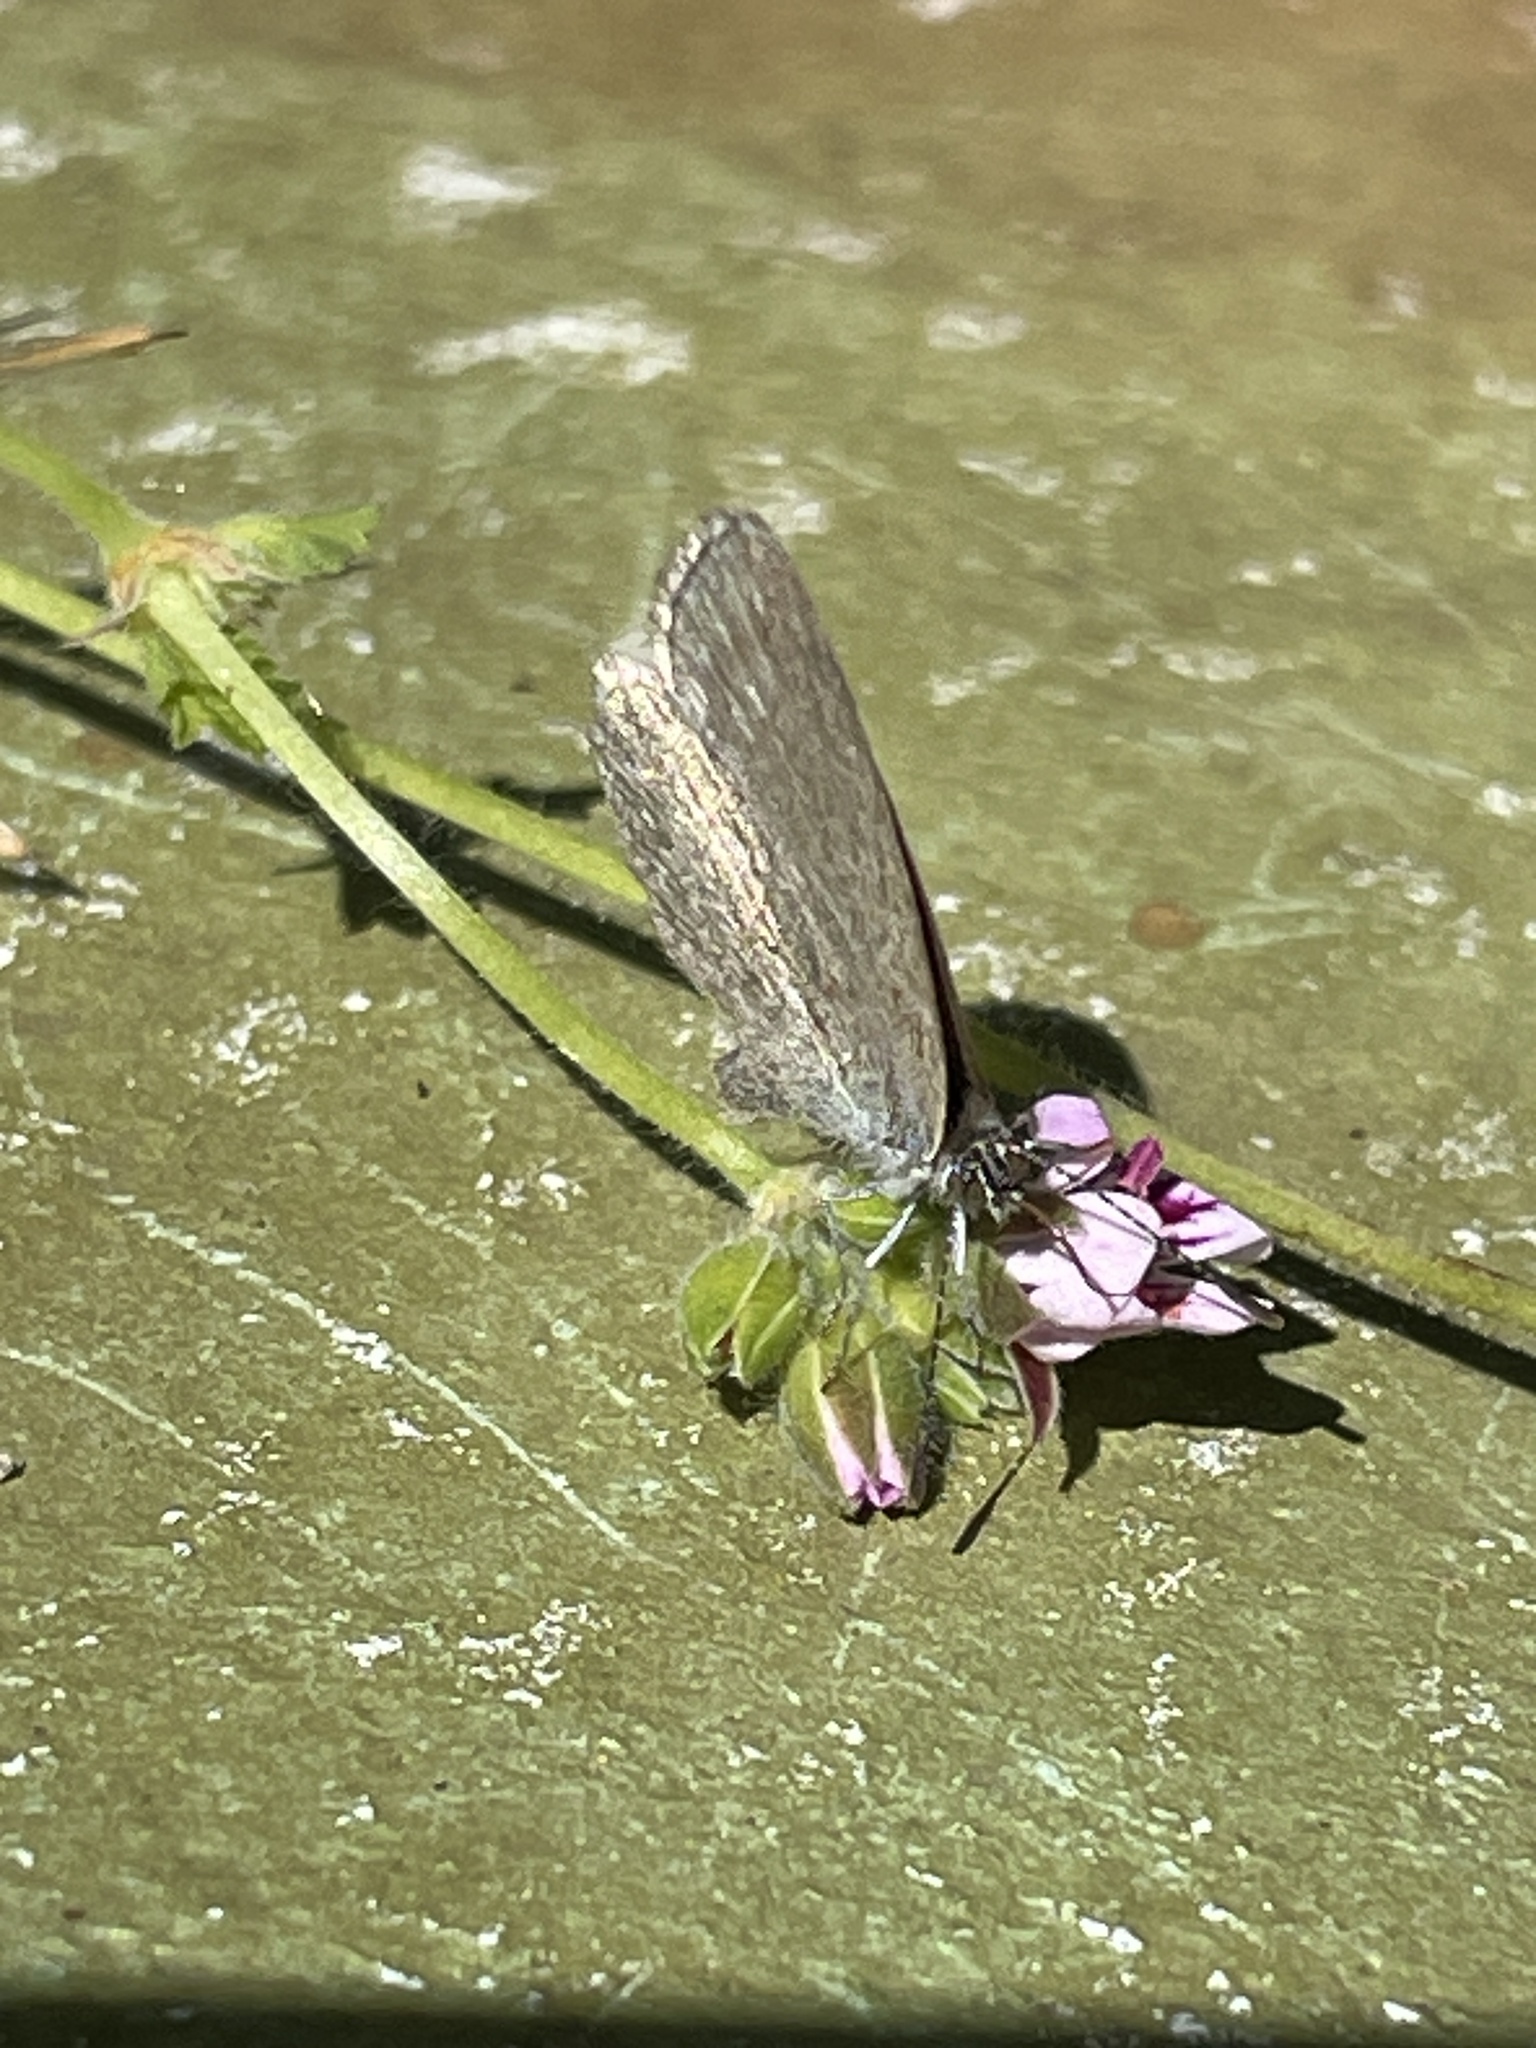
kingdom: Animalia
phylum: Arthropoda
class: Insecta
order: Lepidoptera
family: Lycaenidae
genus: Zizina
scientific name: Zizina otis
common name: Lesser grass blue
